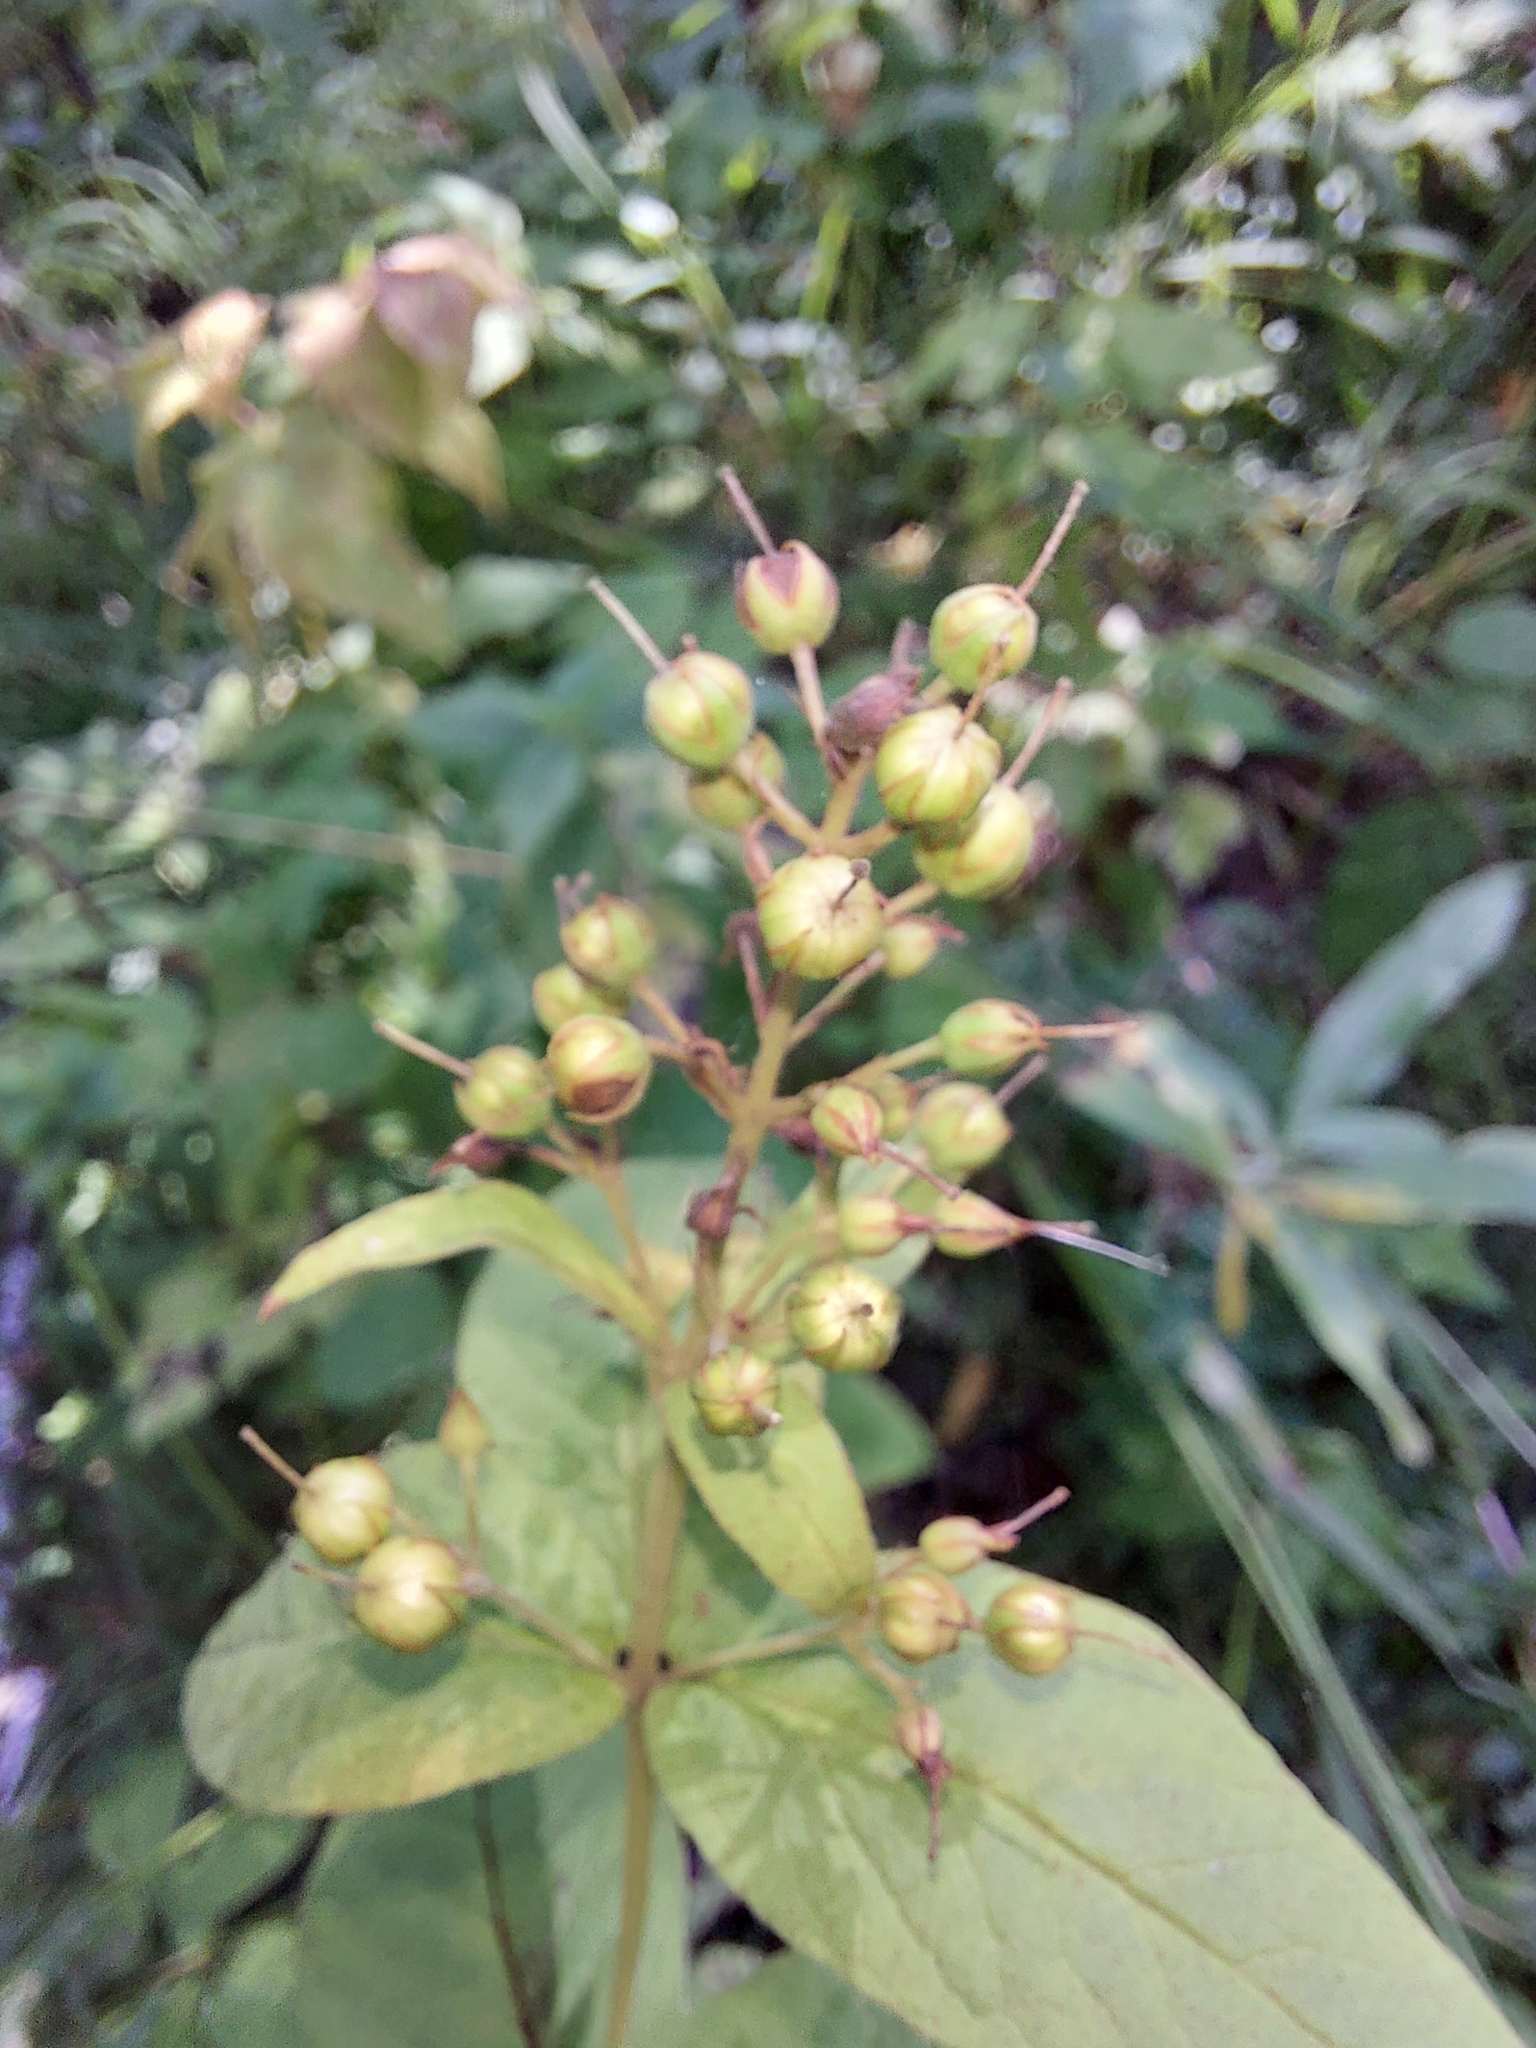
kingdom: Plantae
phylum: Tracheophyta
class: Magnoliopsida
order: Ericales
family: Primulaceae
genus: Lysimachia
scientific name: Lysimachia vulgaris
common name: Yellow loosestrife
